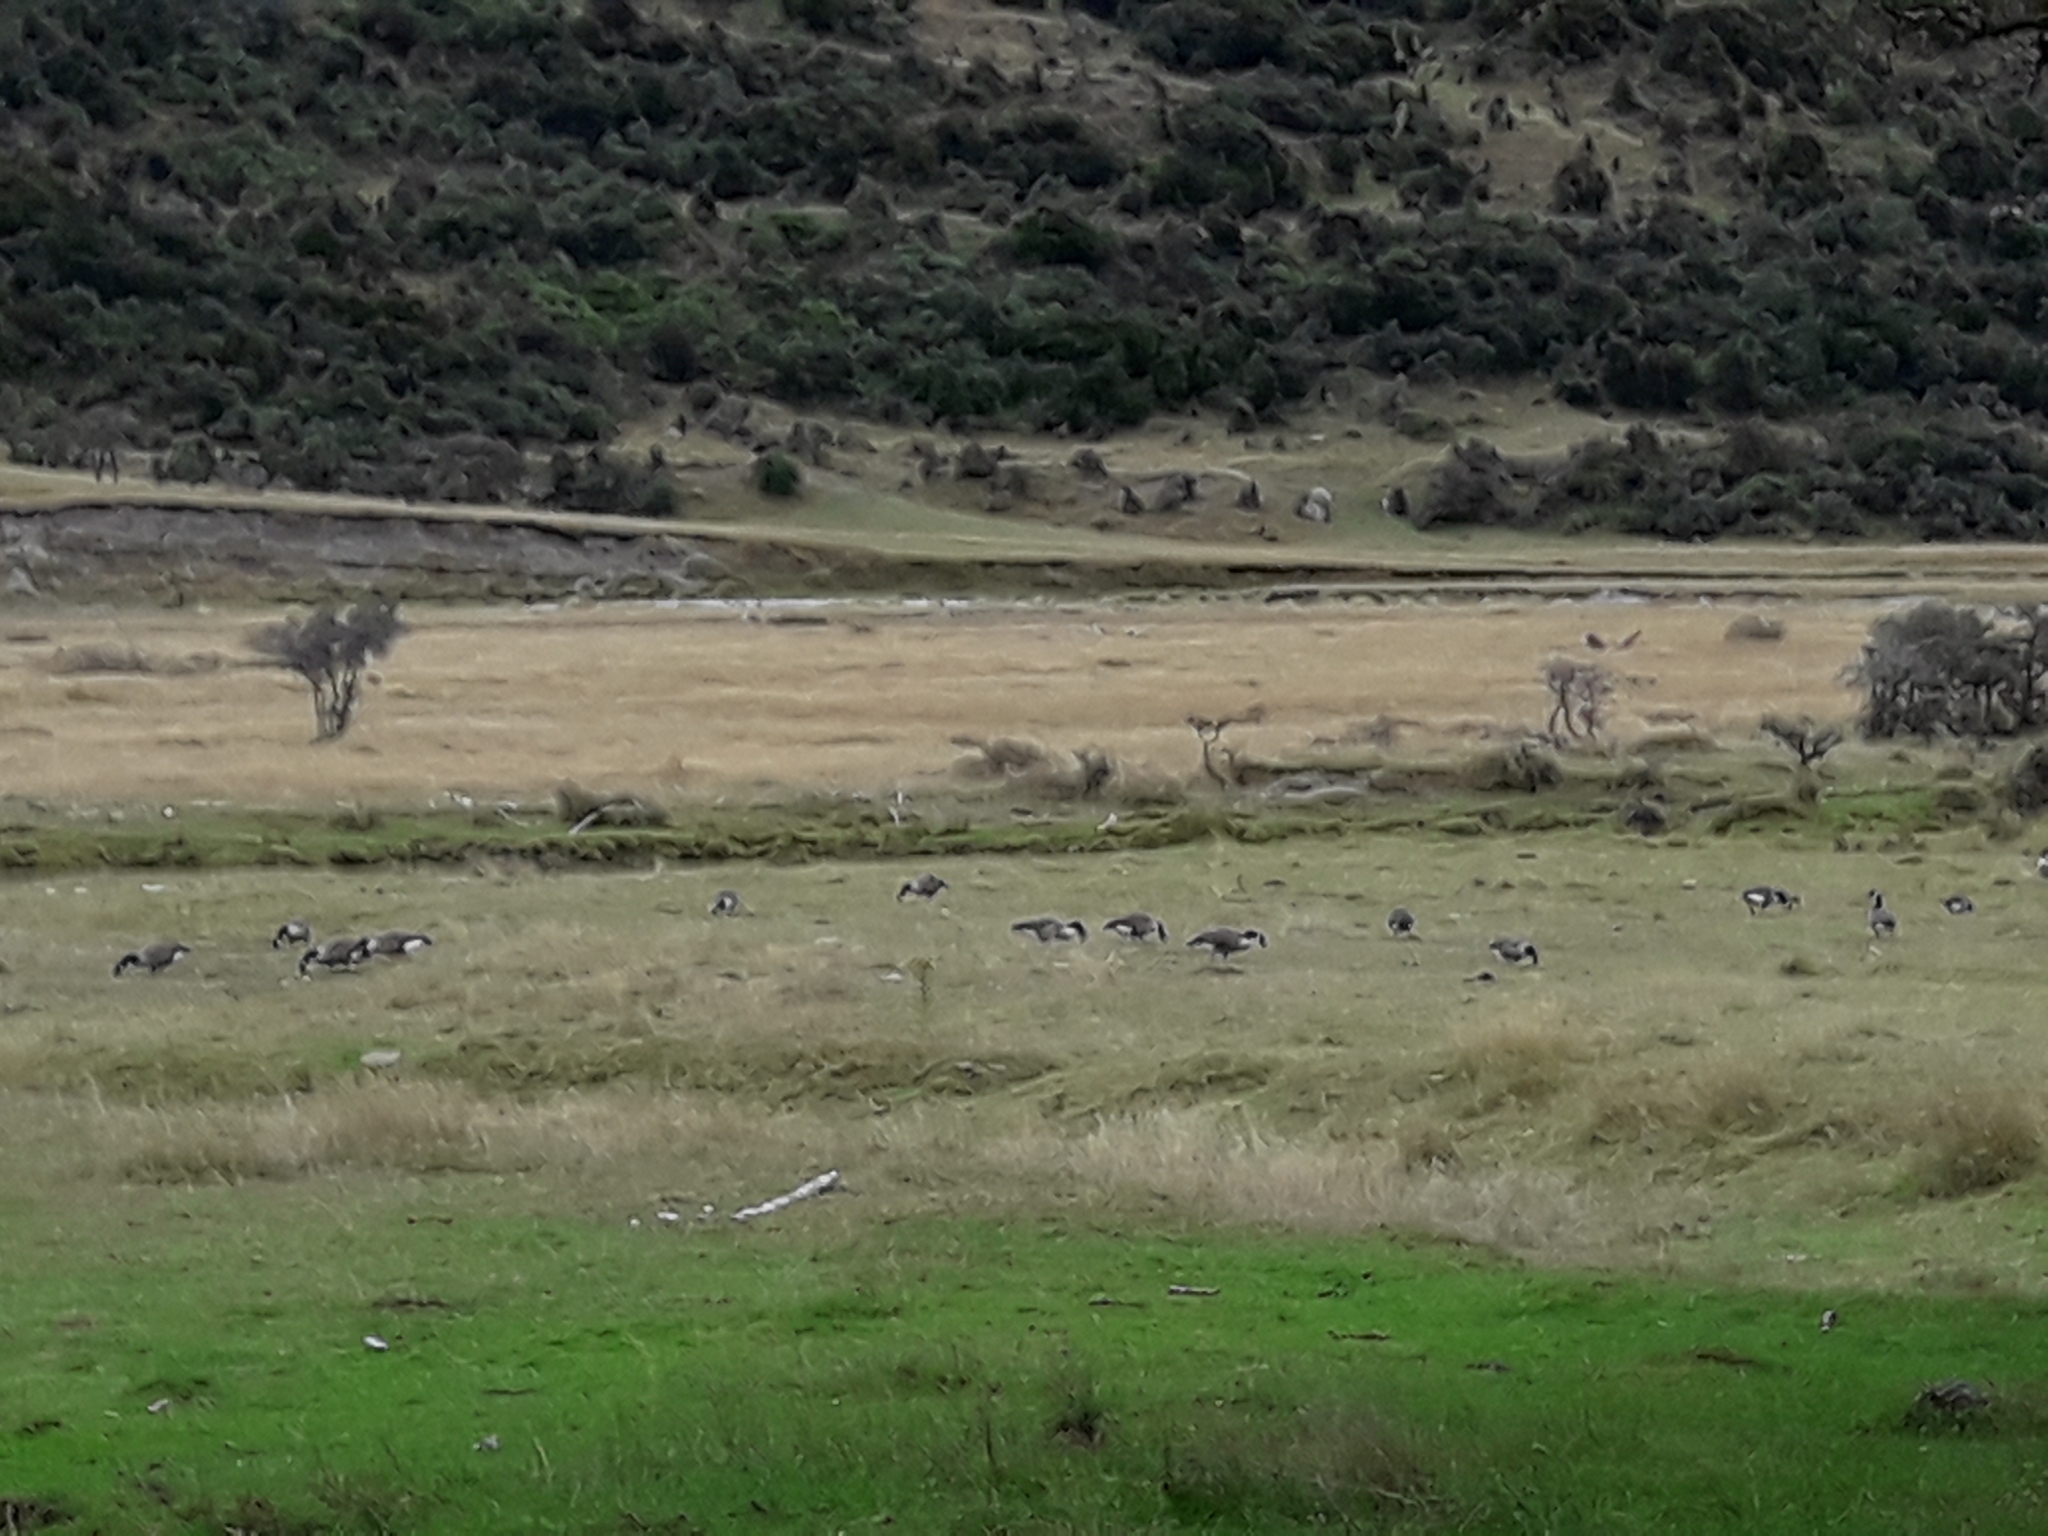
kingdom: Animalia
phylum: Chordata
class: Aves
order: Anseriformes
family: Anatidae
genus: Branta
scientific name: Branta canadensis
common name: Canada goose
